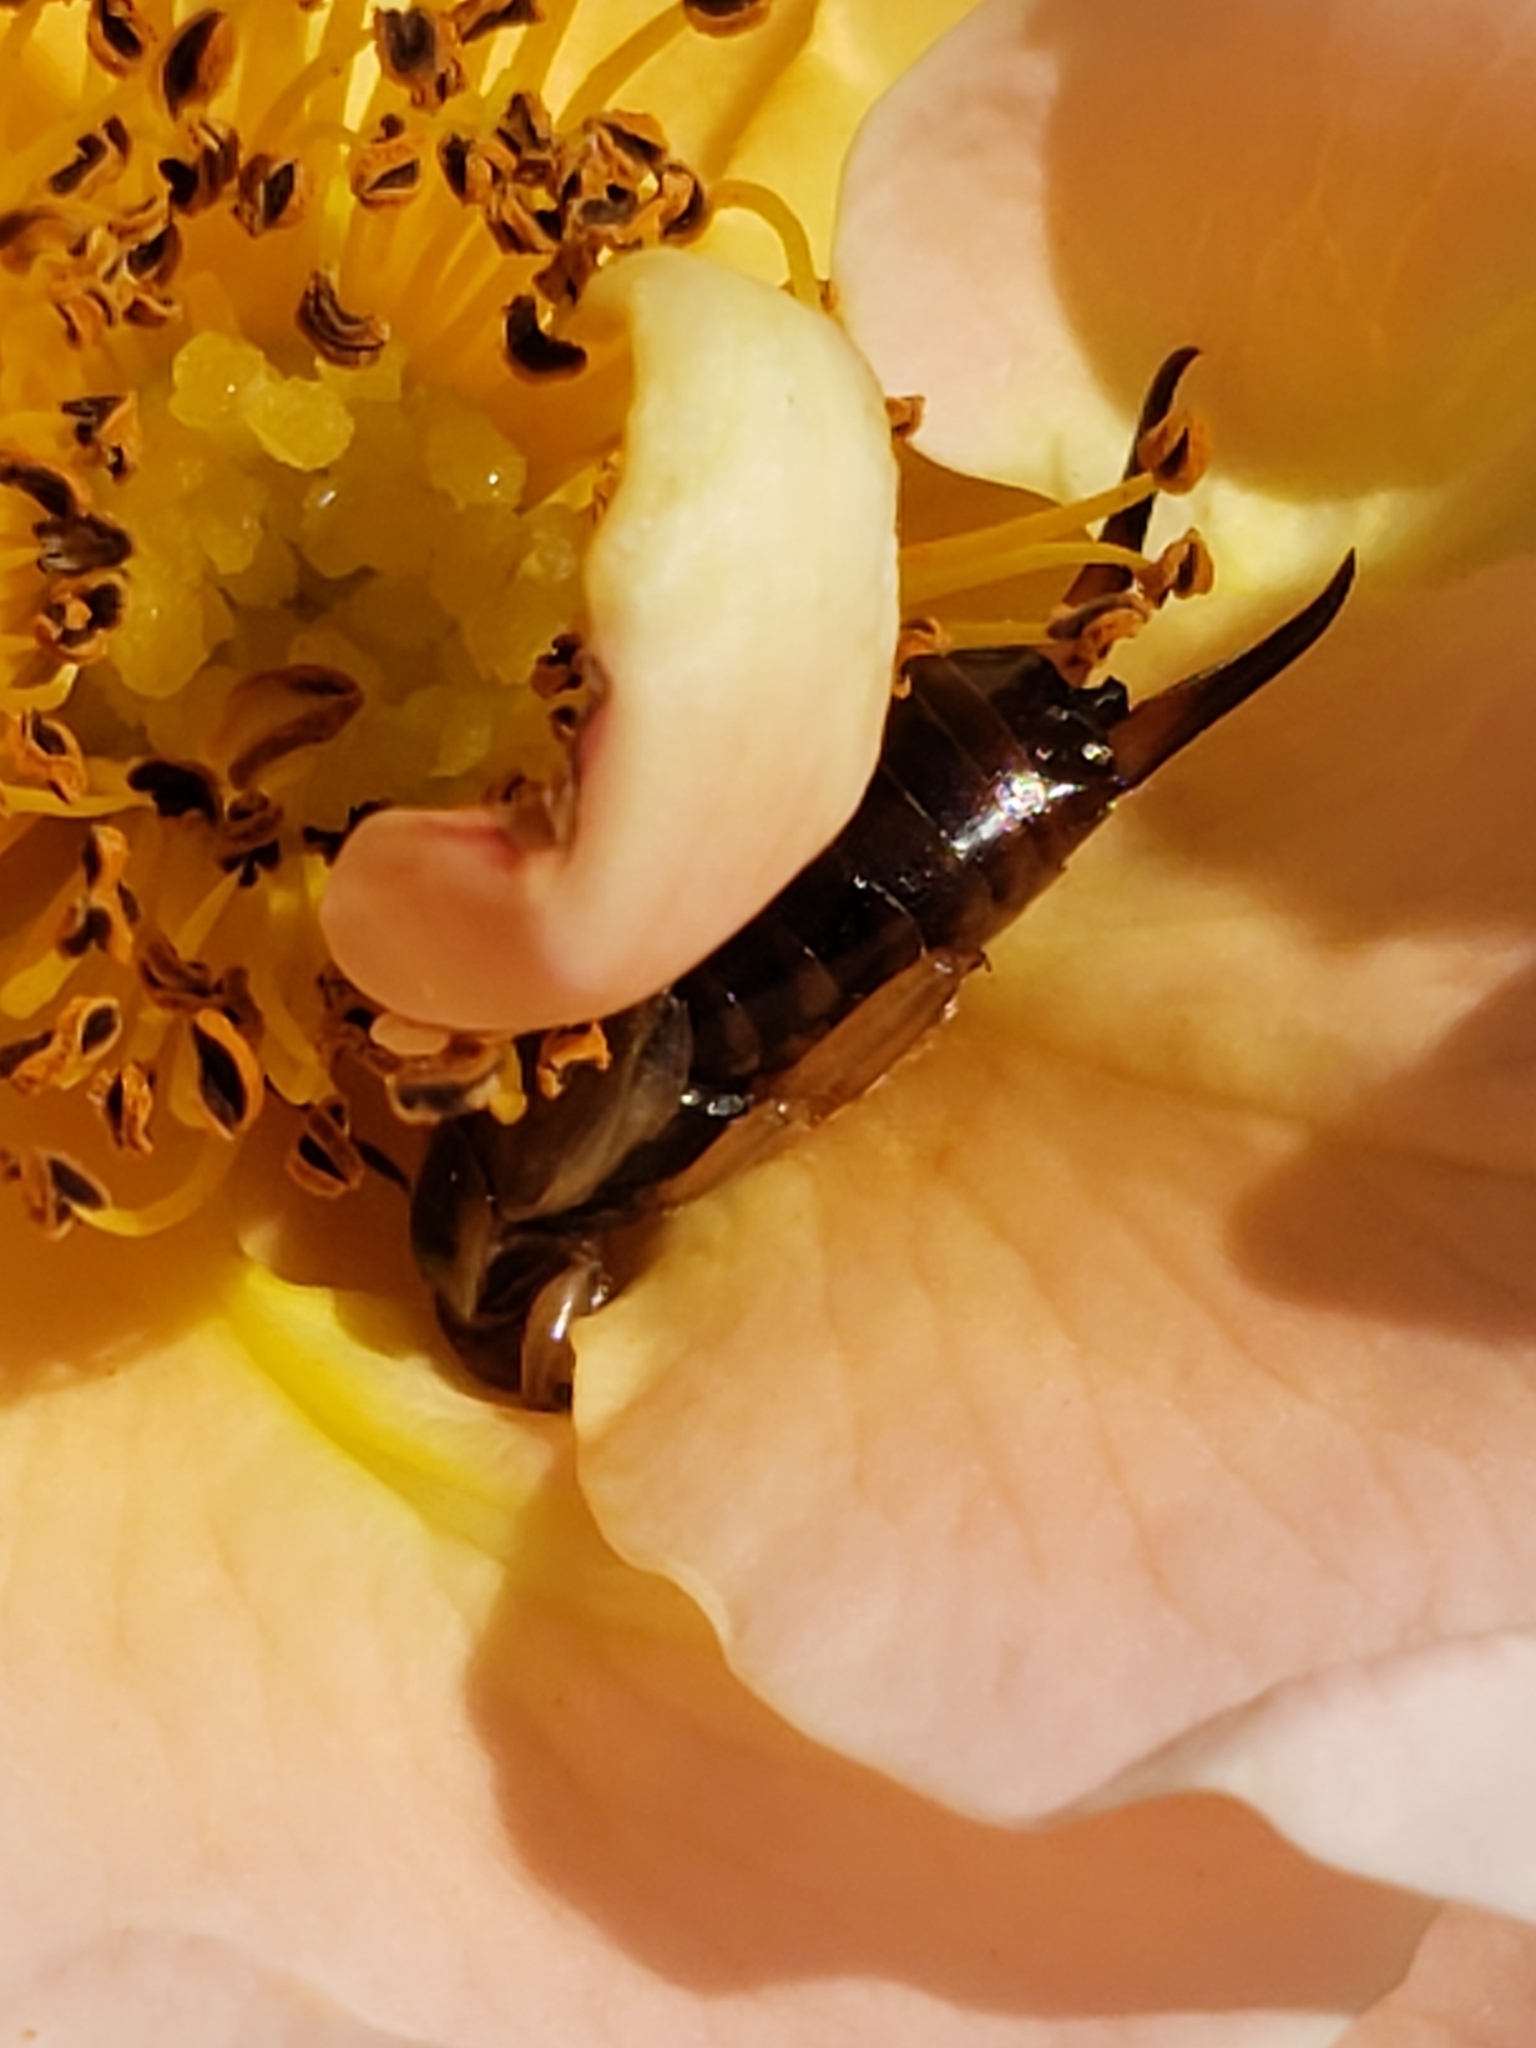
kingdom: Animalia
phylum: Arthropoda
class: Insecta
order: Dermaptera
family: Forficulidae
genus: Forficula
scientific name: Forficula
